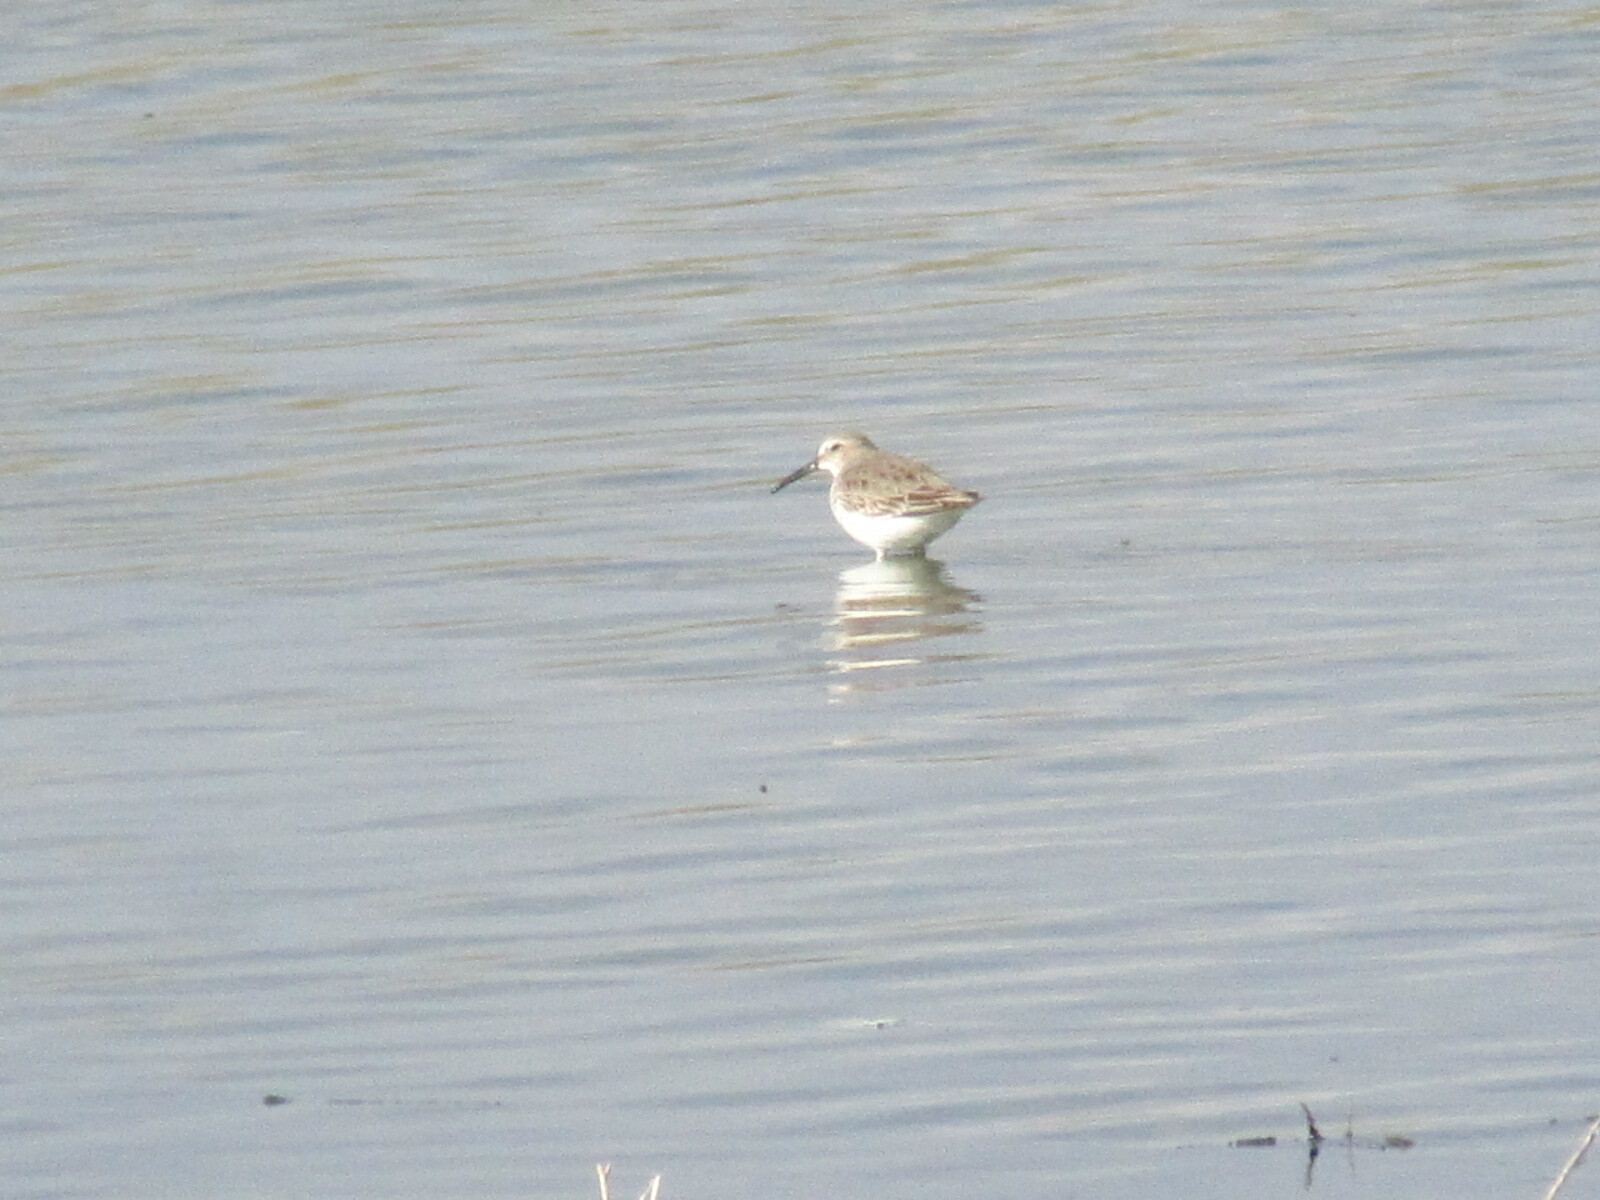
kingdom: Animalia
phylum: Chordata
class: Aves
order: Charadriiformes
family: Scolopacidae
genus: Calidris
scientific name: Calidris alpina
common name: Dunlin
